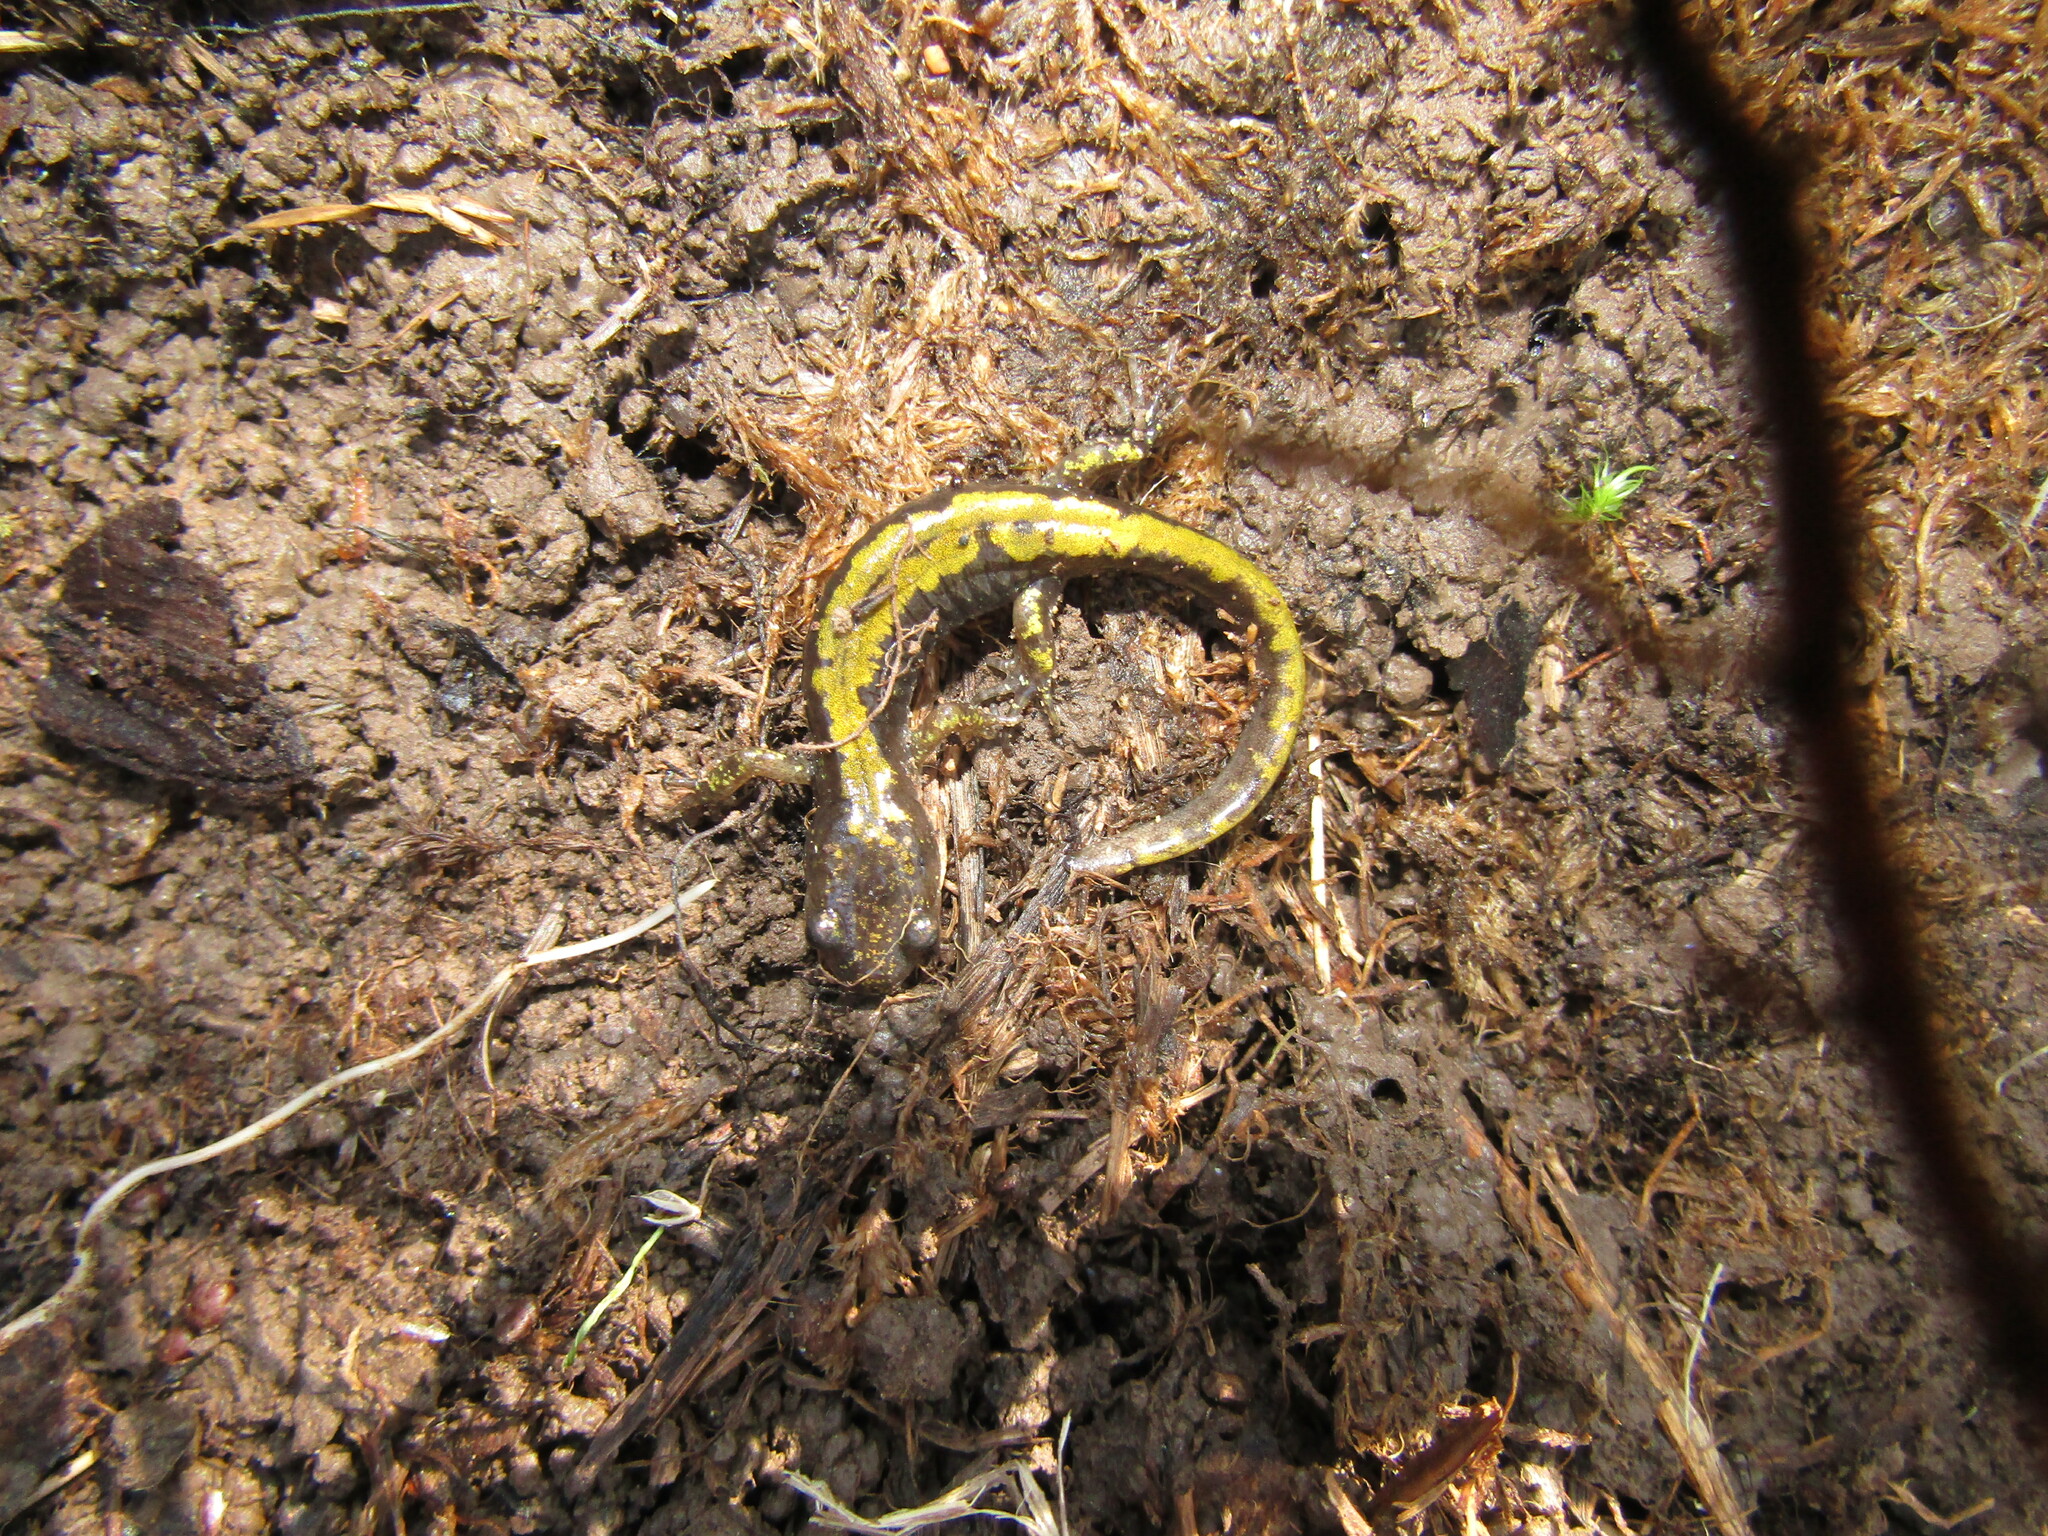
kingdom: Animalia
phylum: Chordata
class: Amphibia
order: Caudata
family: Ambystomatidae
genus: Ambystoma
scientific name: Ambystoma macrodactylum
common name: Long-toed salamander
